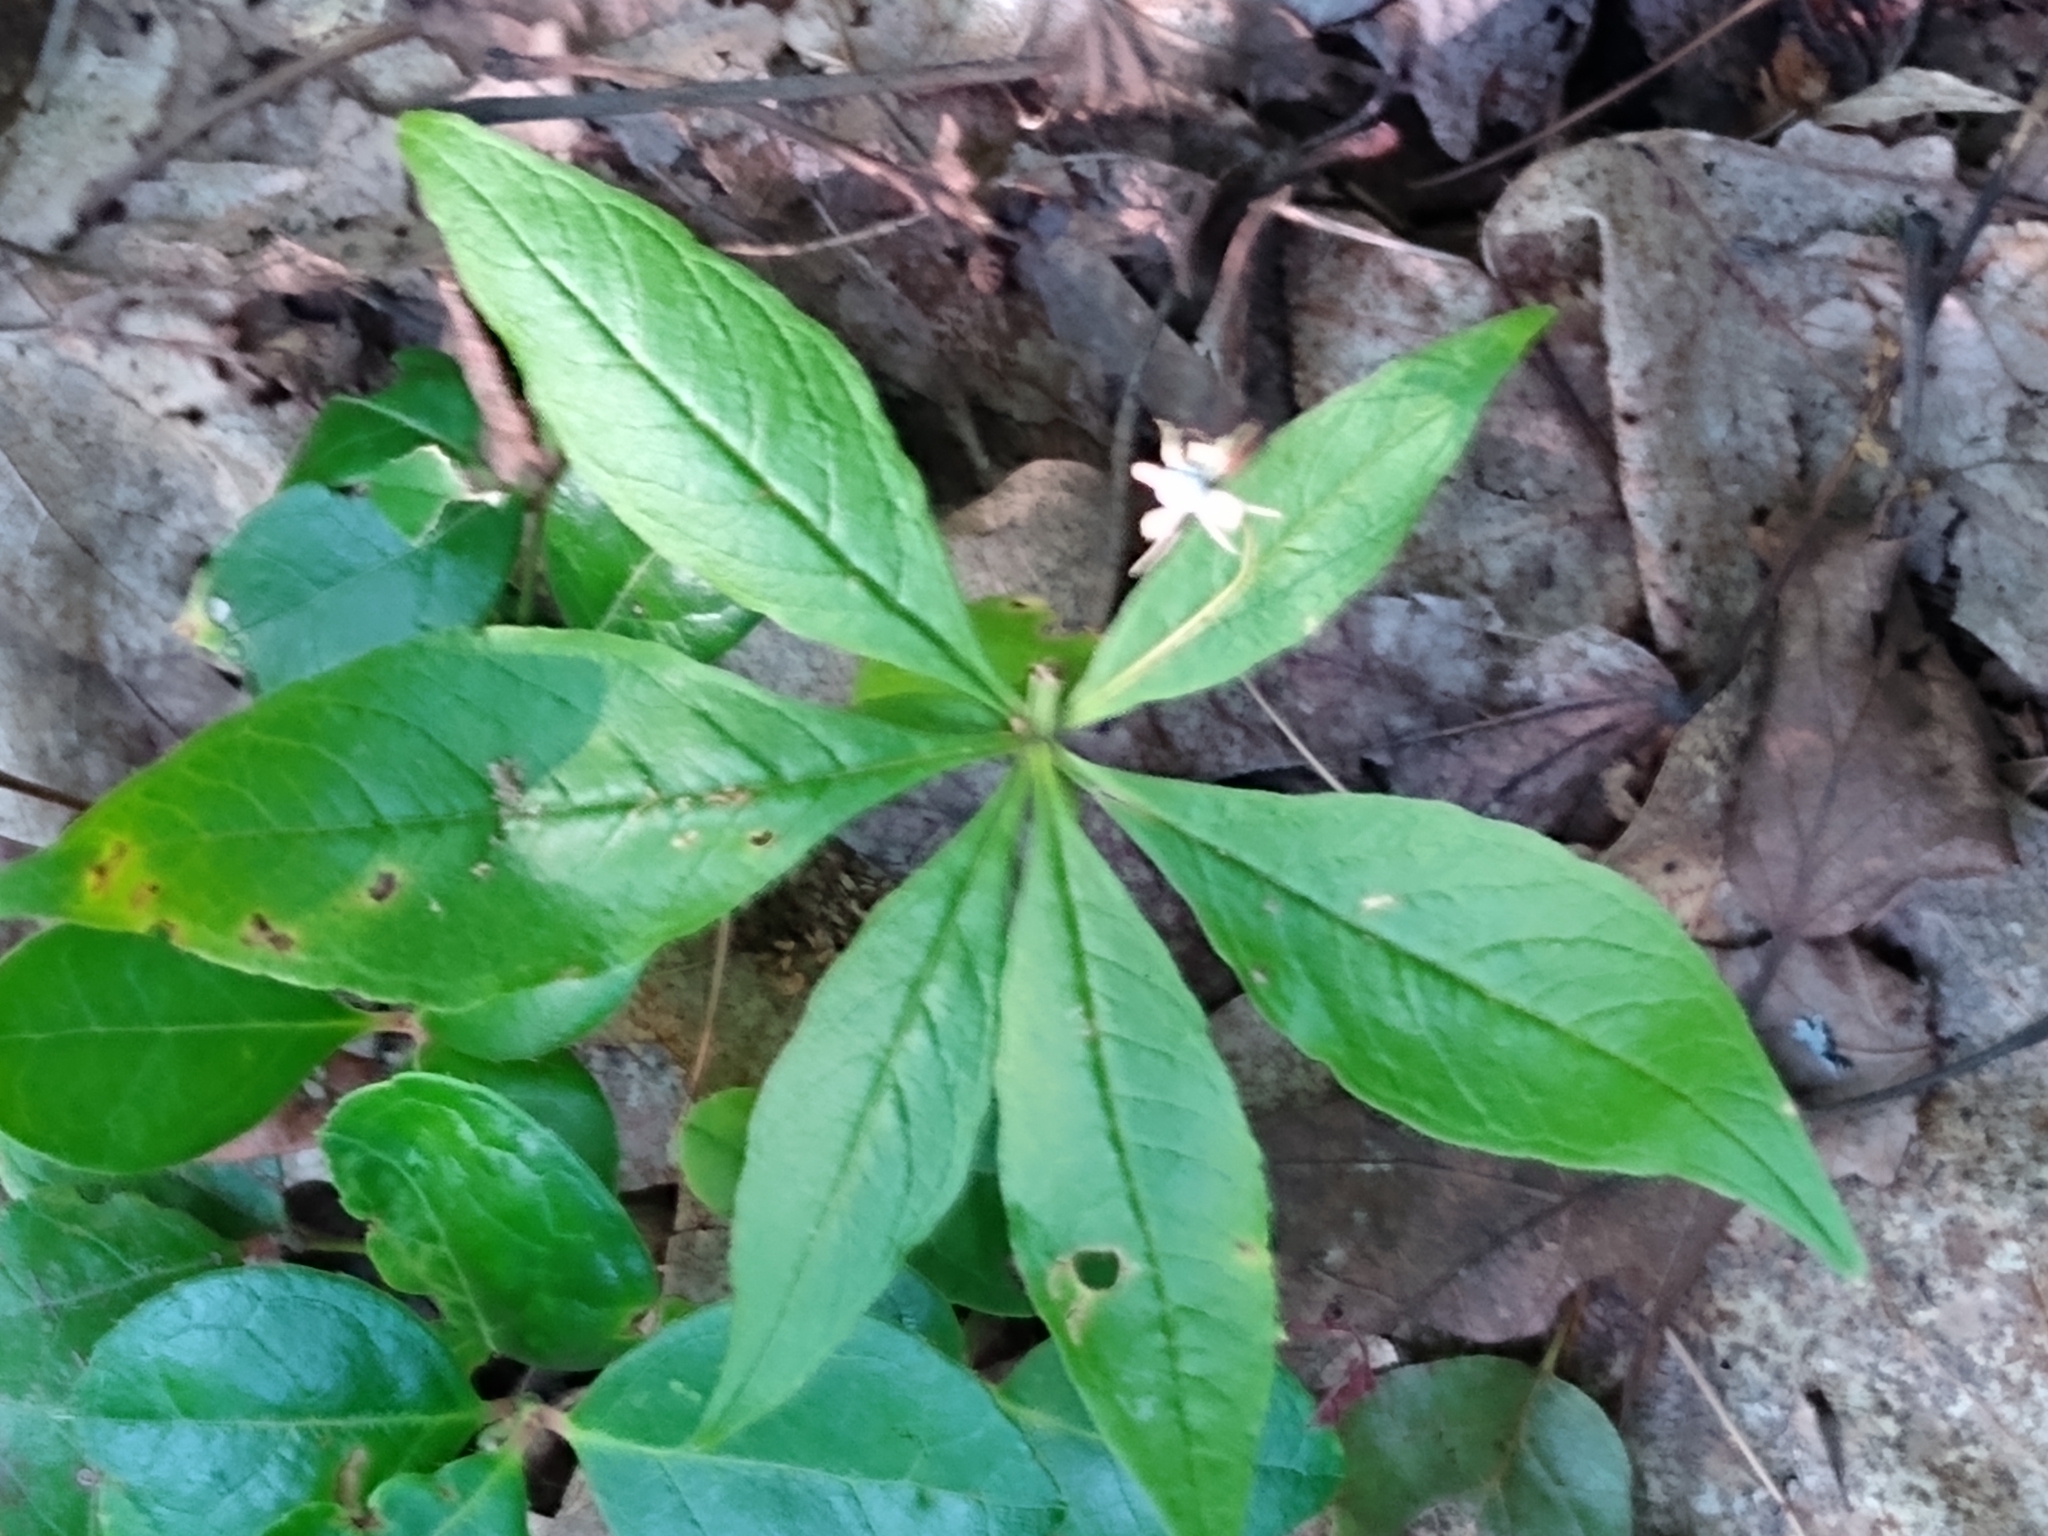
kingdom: Plantae
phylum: Tracheophyta
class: Magnoliopsida
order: Ericales
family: Primulaceae
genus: Lysimachia
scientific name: Lysimachia borealis
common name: American starflower
